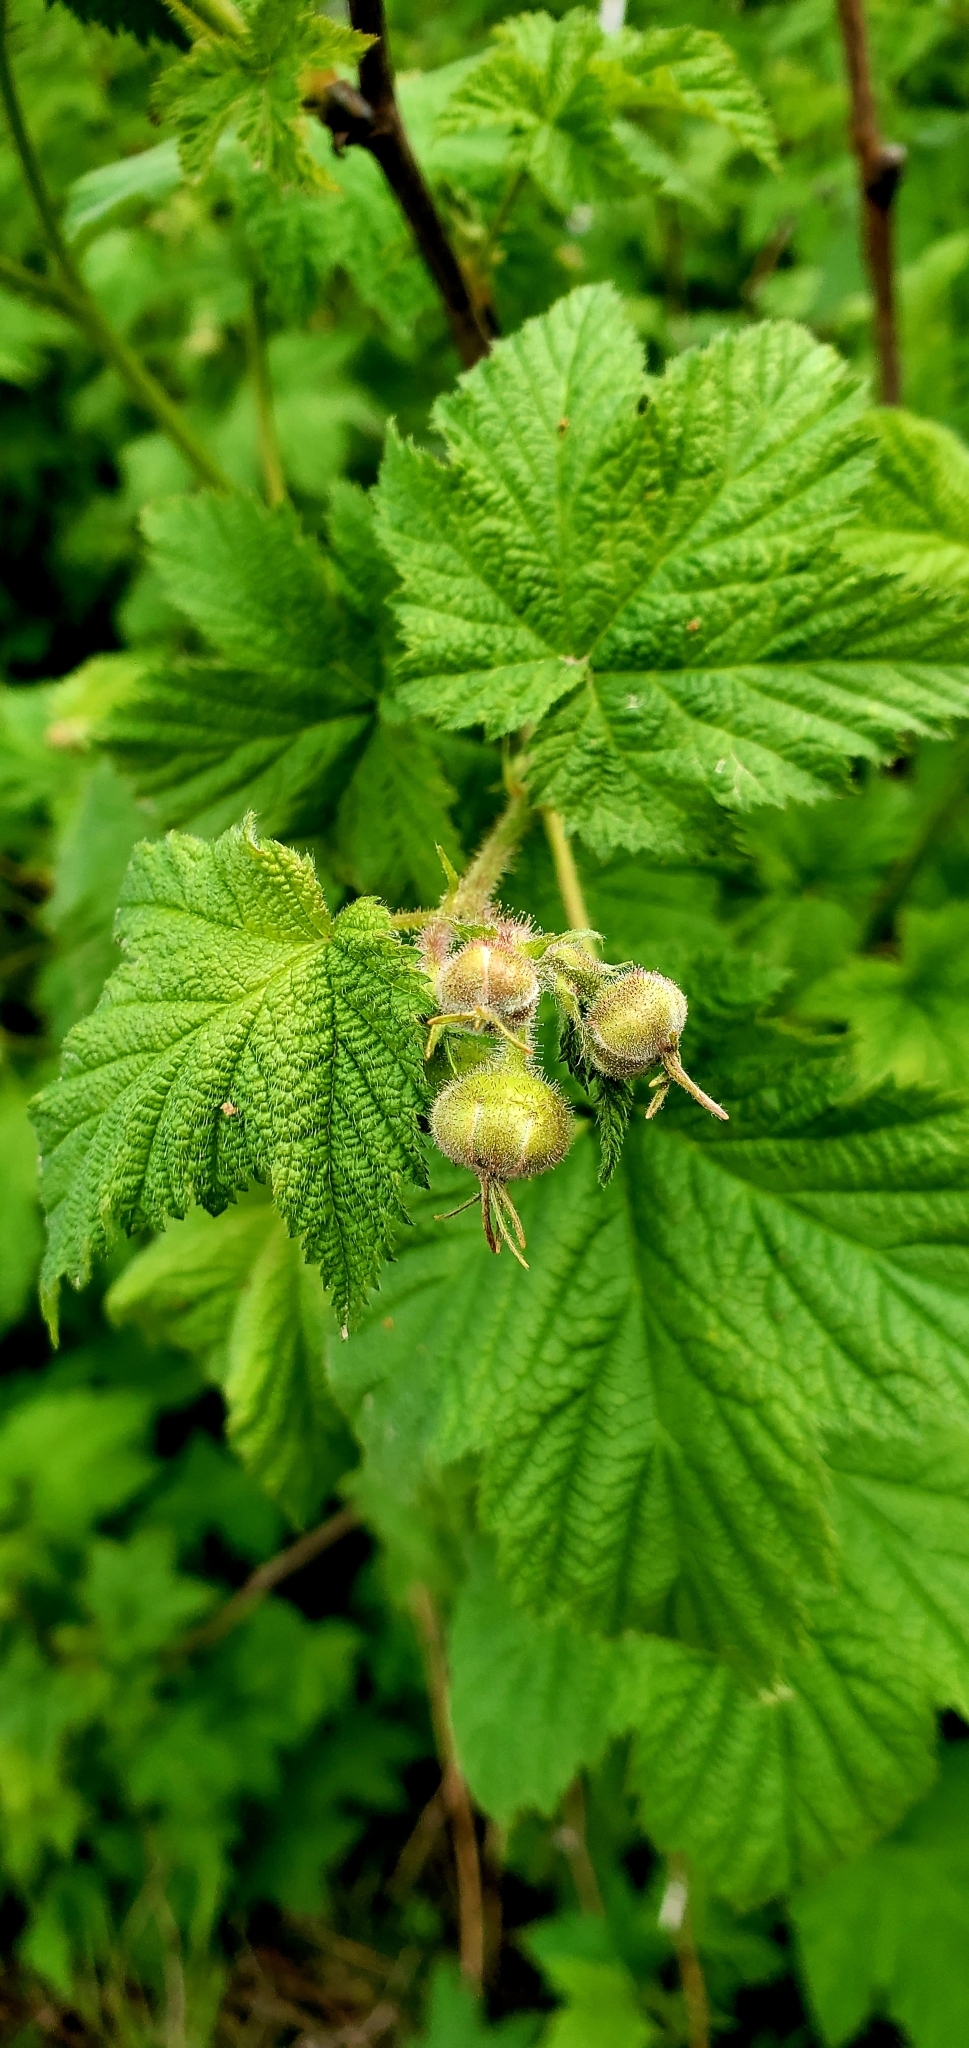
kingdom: Plantae
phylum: Tracheophyta
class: Magnoliopsida
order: Rosales
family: Rosaceae
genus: Rubus
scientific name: Rubus parviflorus
